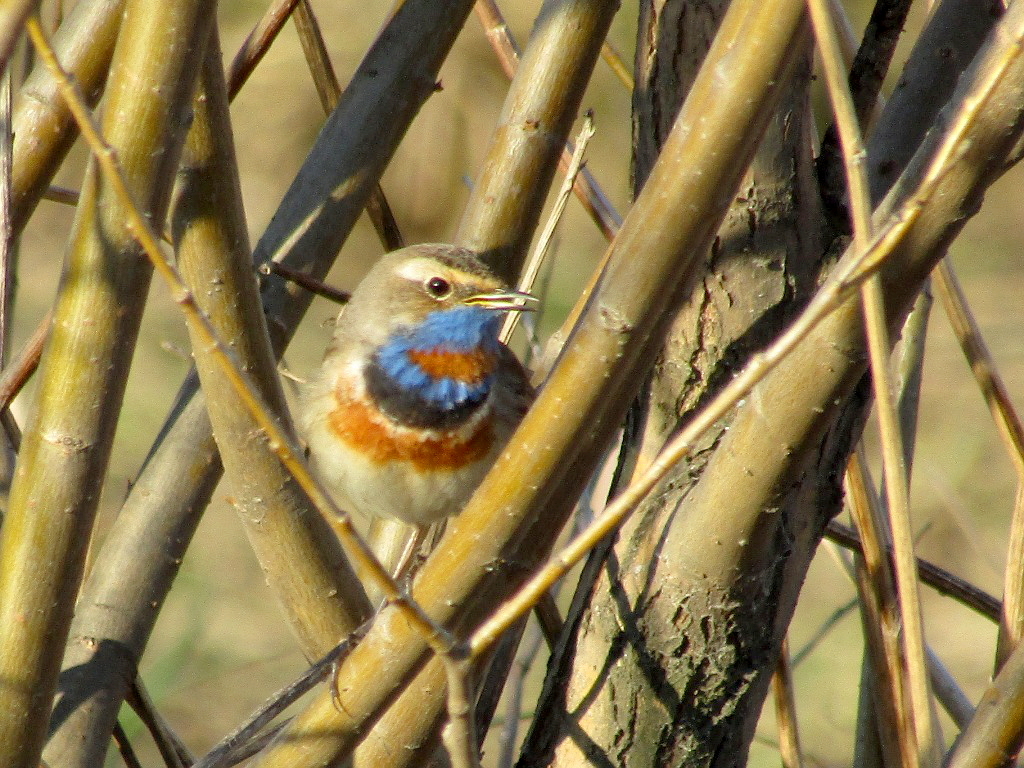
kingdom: Animalia
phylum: Chordata
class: Aves
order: Passeriformes
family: Muscicapidae
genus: Luscinia
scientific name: Luscinia svecica
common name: Bluethroat
